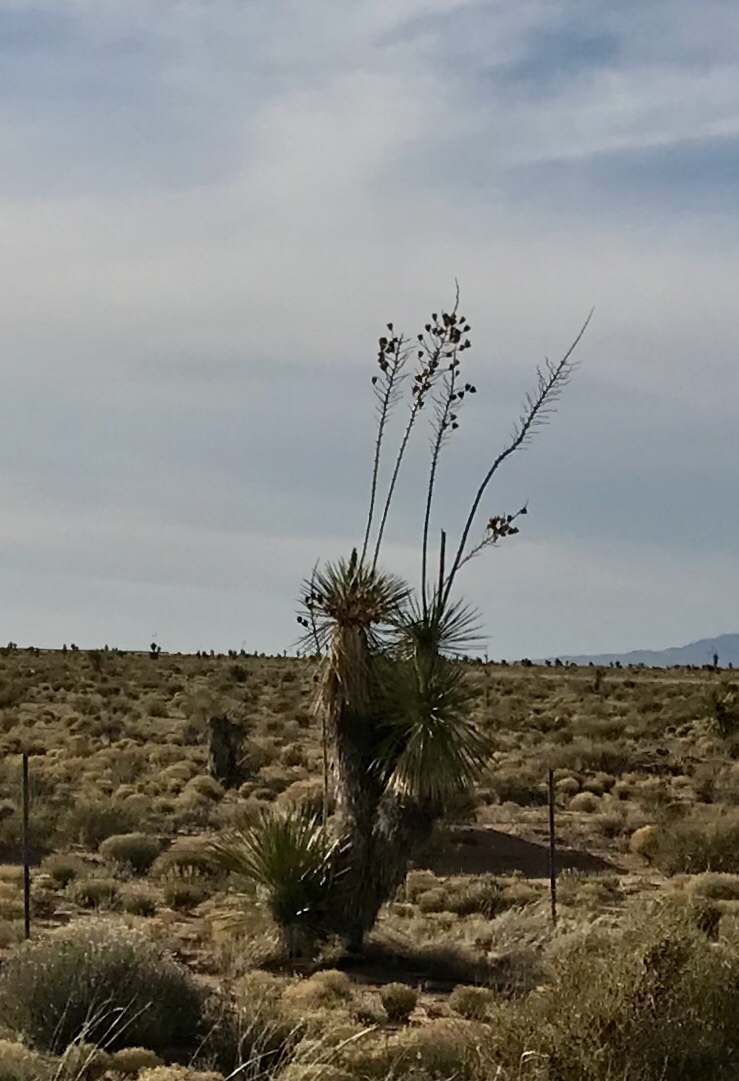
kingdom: Plantae
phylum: Tracheophyta
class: Liliopsida
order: Asparagales
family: Asparagaceae
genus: Yucca
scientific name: Yucca elata
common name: Palmella
